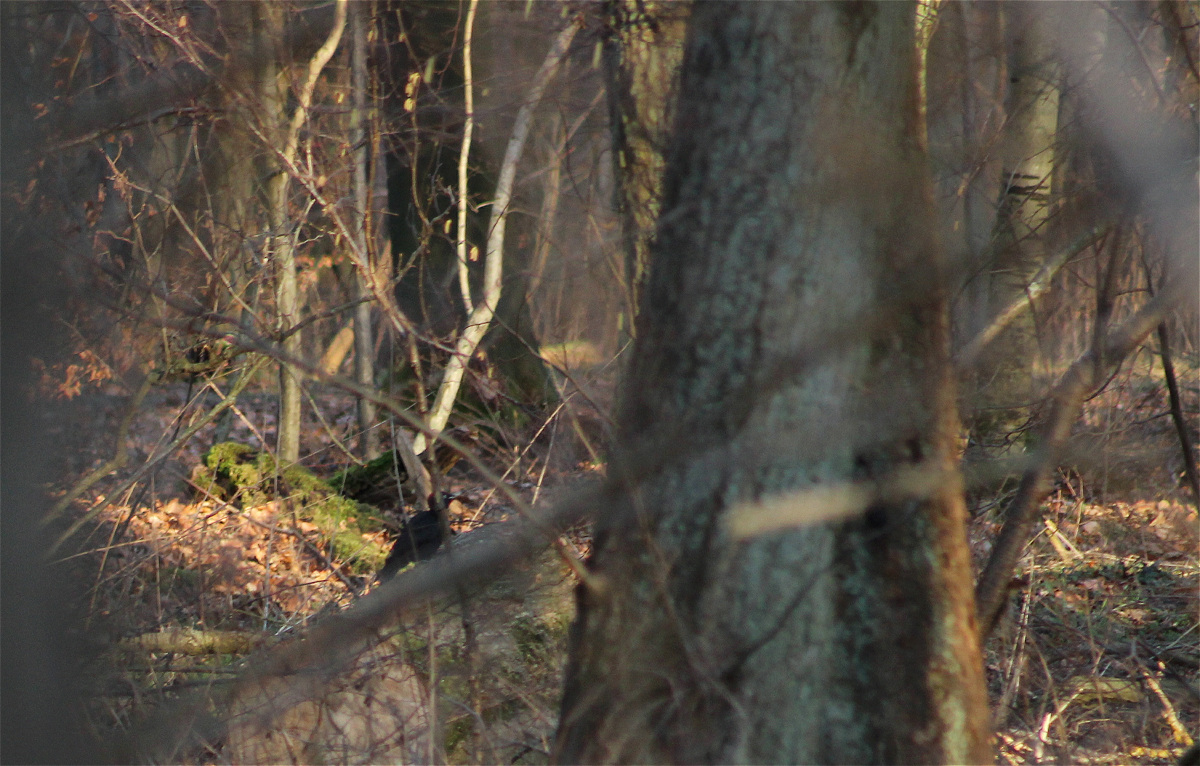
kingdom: Animalia
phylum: Chordata
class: Aves
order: Piciformes
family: Picidae
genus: Dryocopus
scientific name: Dryocopus martius
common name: Black woodpecker
